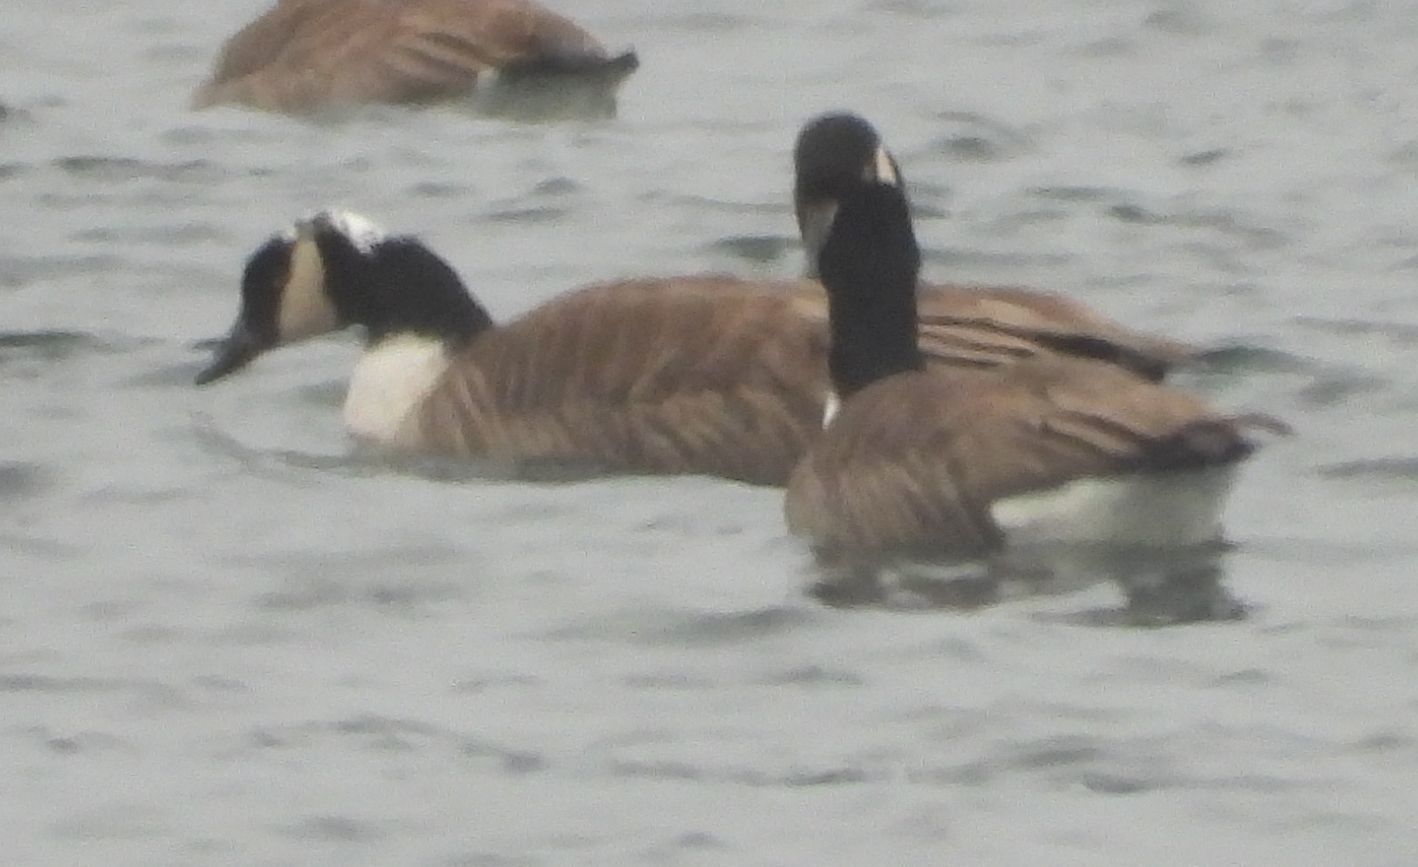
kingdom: Animalia
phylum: Chordata
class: Aves
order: Anseriformes
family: Anatidae
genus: Branta
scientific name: Branta canadensis
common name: Canada goose
